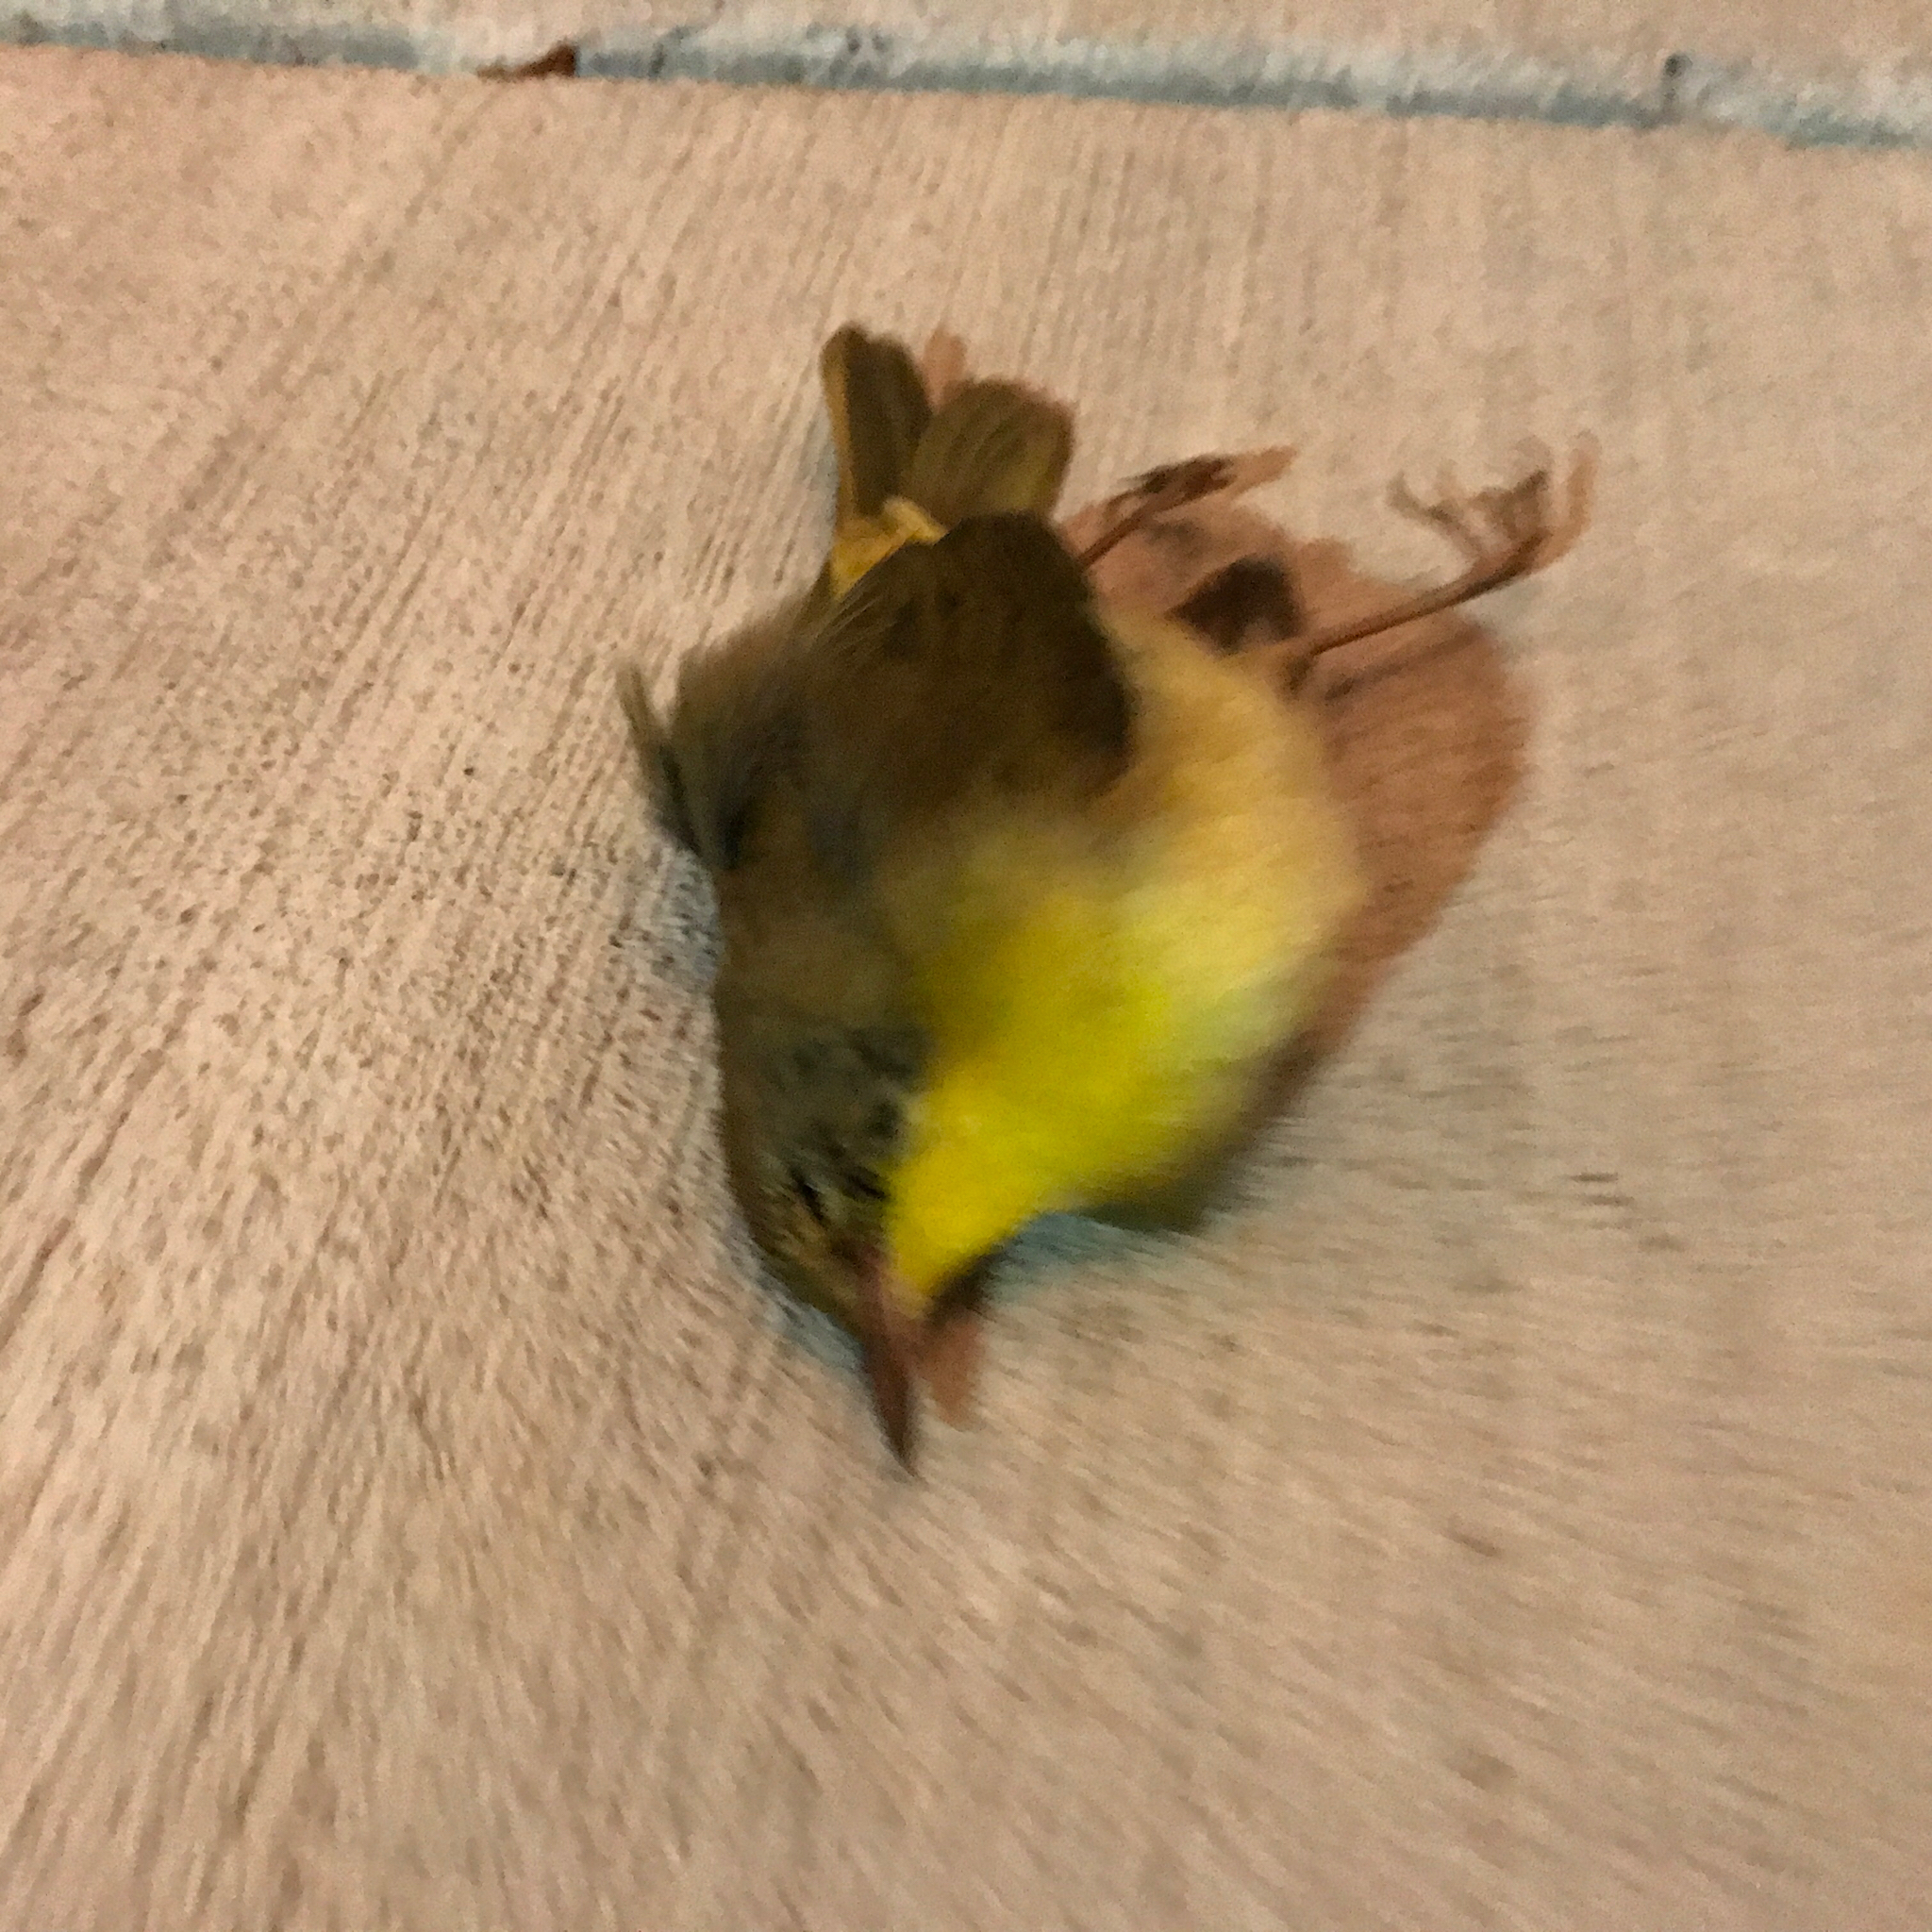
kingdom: Animalia
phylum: Chordata
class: Aves
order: Passeriformes
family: Parulidae
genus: Geothlypis
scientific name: Geothlypis trichas
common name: Common yellowthroat
